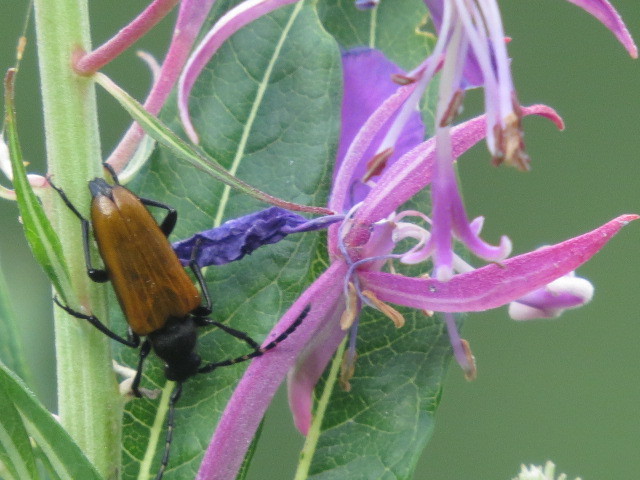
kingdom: Animalia
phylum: Arthropoda
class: Insecta
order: Coleoptera
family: Cerambycidae
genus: Paracorymbia
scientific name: Paracorymbia hybrida
